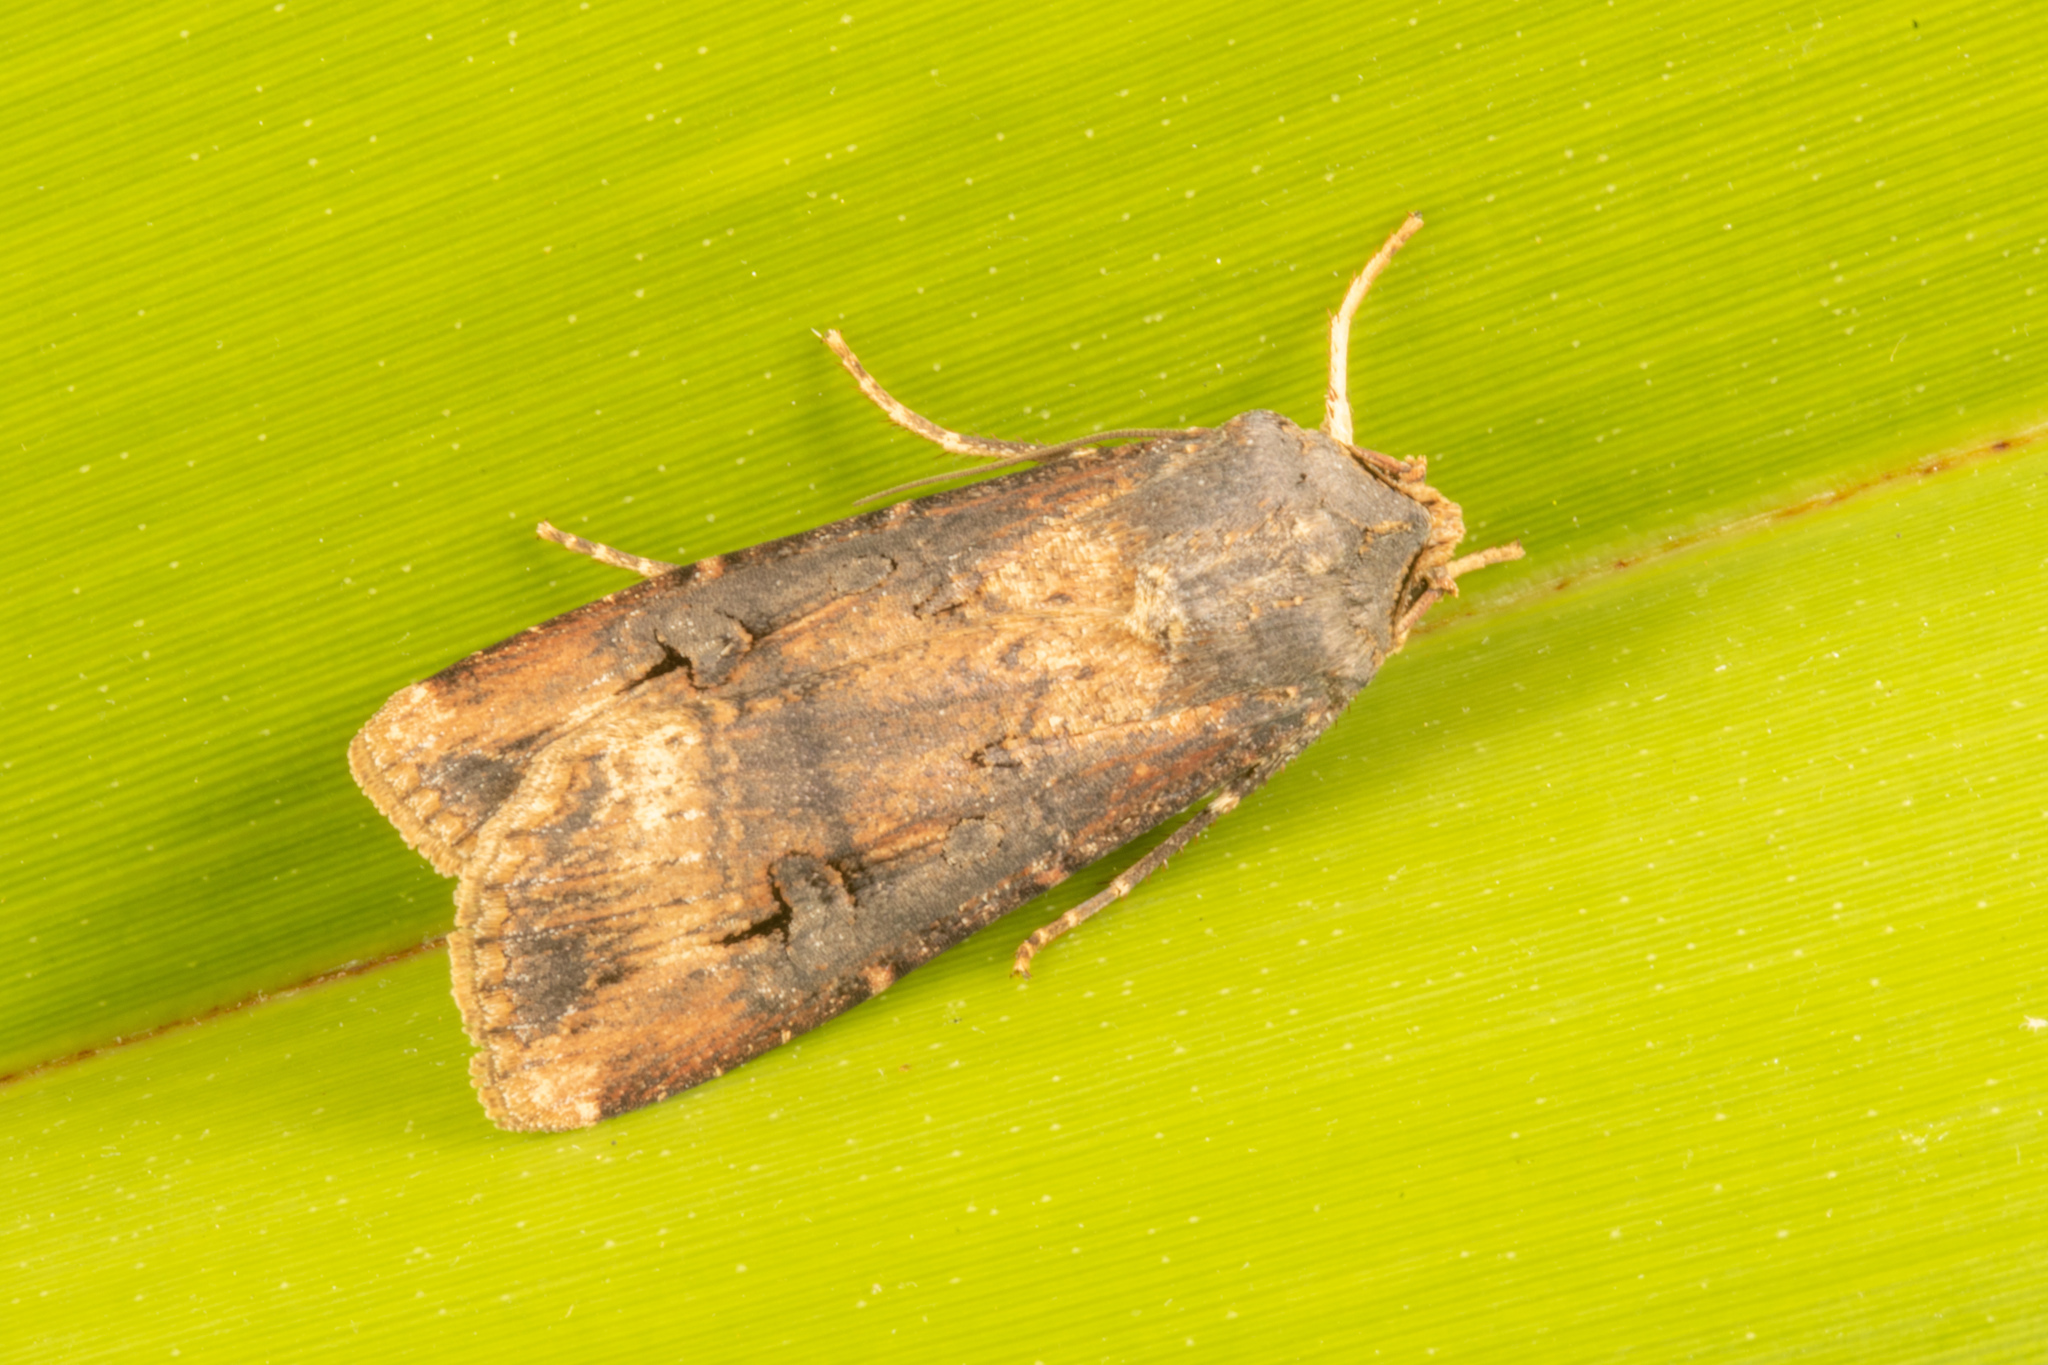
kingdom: Animalia
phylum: Arthropoda
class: Insecta
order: Lepidoptera
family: Noctuidae
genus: Agrotis
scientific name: Agrotis ipsilon
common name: Dark sword-grass
